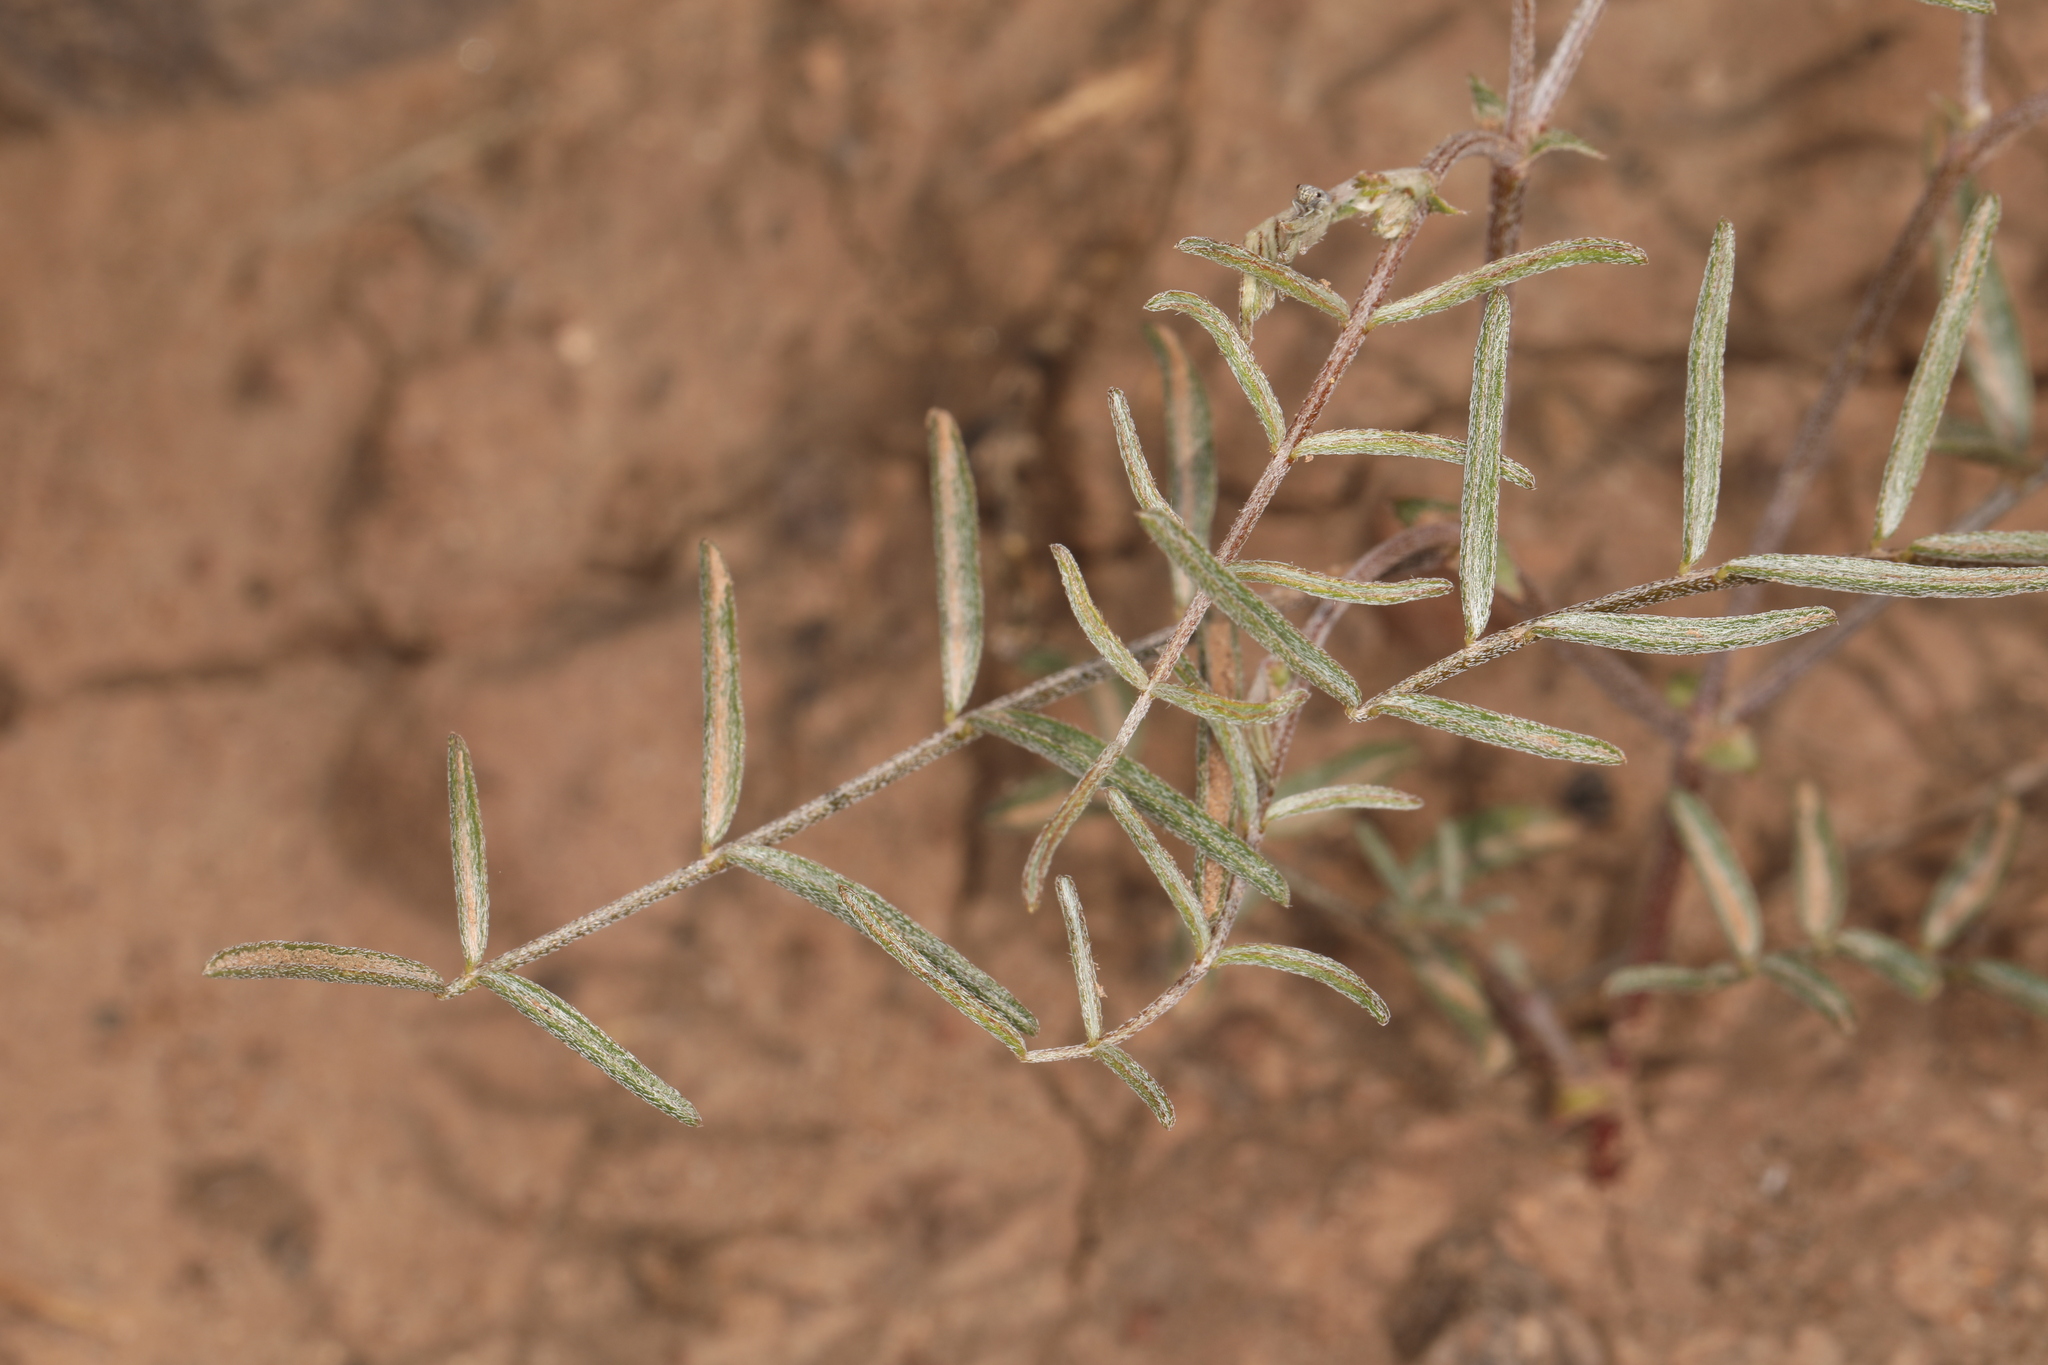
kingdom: Plantae
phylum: Tracheophyta
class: Magnoliopsida
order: Fabales
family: Fabaceae
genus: Astragalus
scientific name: Astragalus casei
